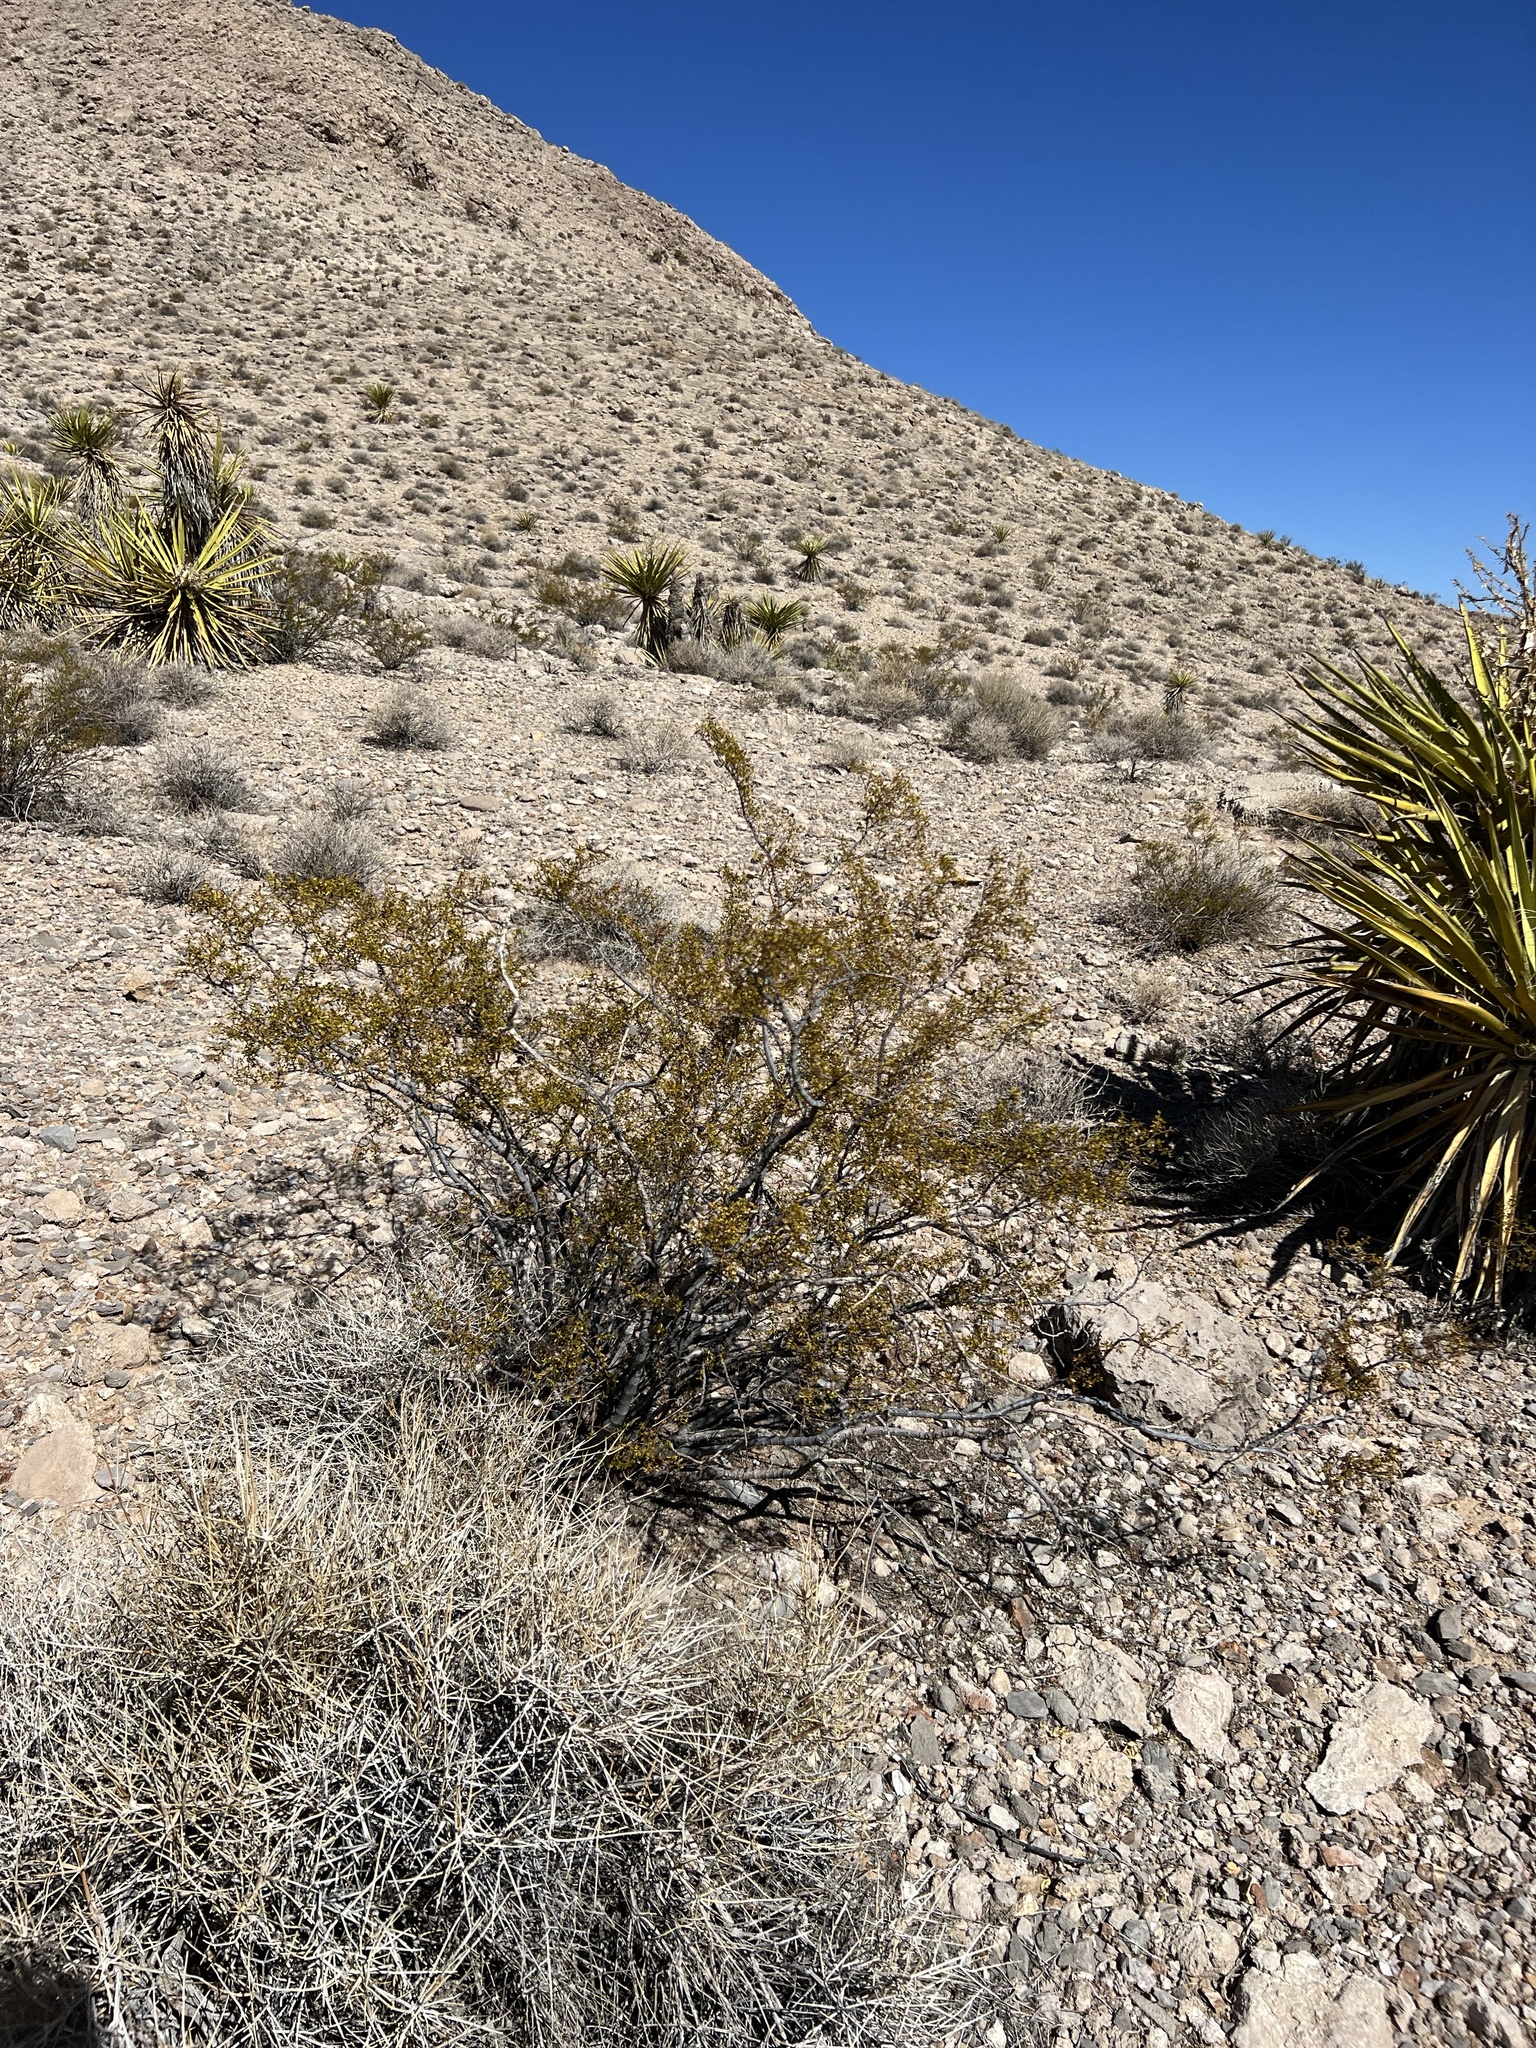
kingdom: Plantae
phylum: Tracheophyta
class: Magnoliopsida
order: Zygophyllales
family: Zygophyllaceae
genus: Larrea
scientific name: Larrea tridentata
